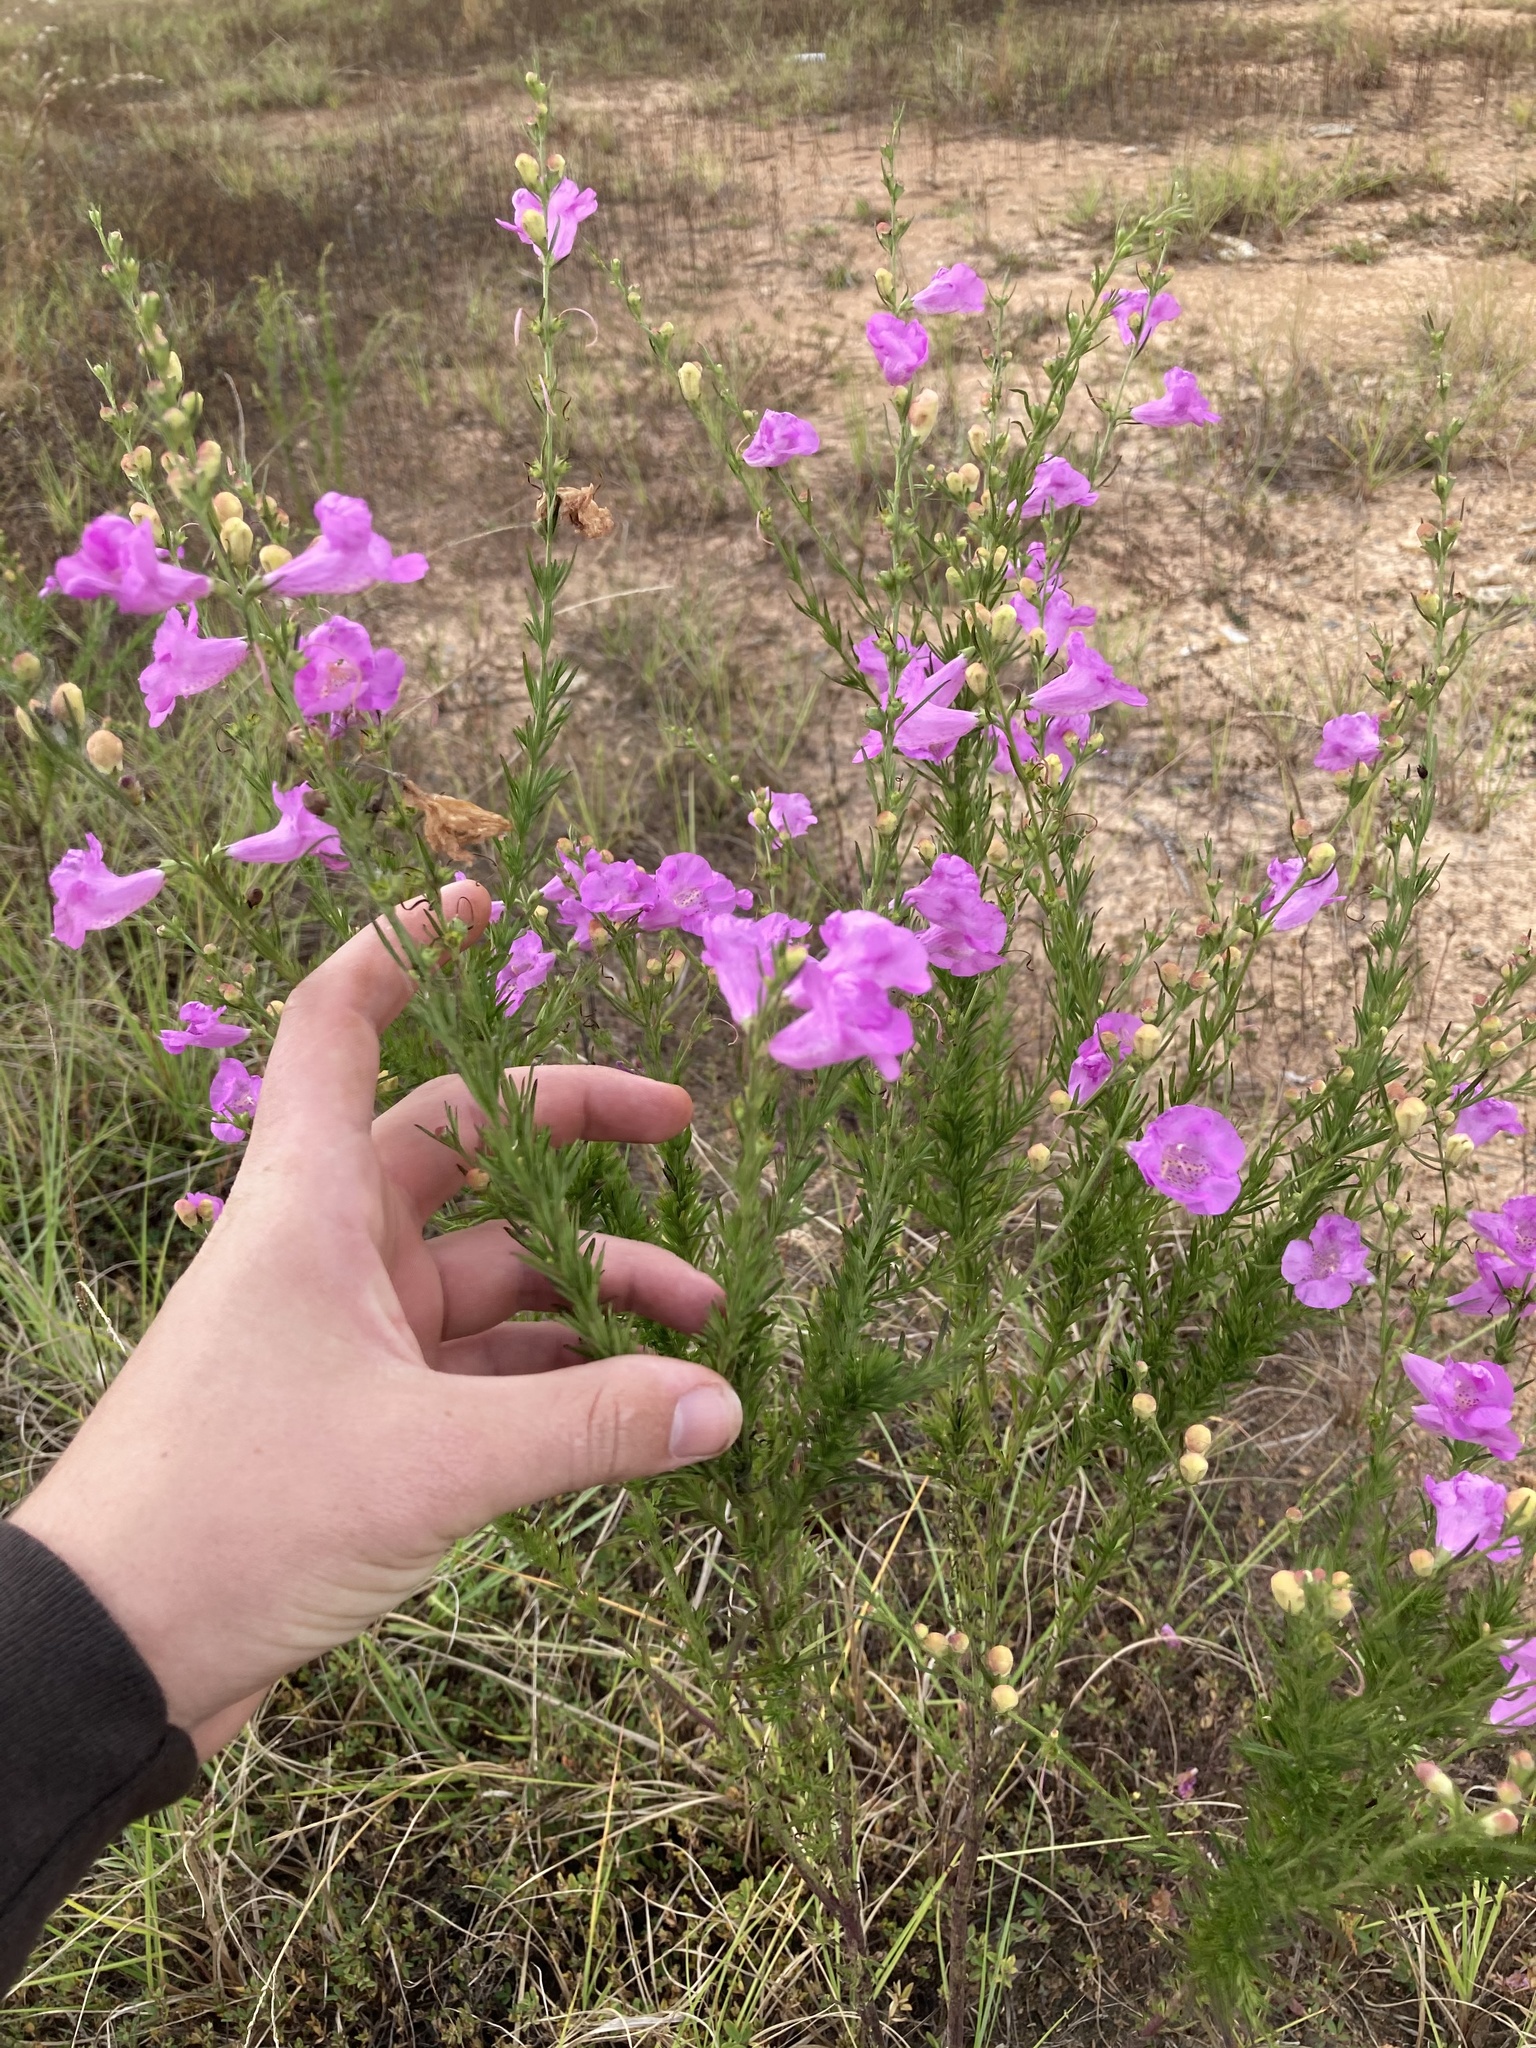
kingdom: Plantae
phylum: Tracheophyta
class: Magnoliopsida
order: Lamiales
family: Orobanchaceae
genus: Agalinis
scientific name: Agalinis fasciculata
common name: Beach false foxglove
